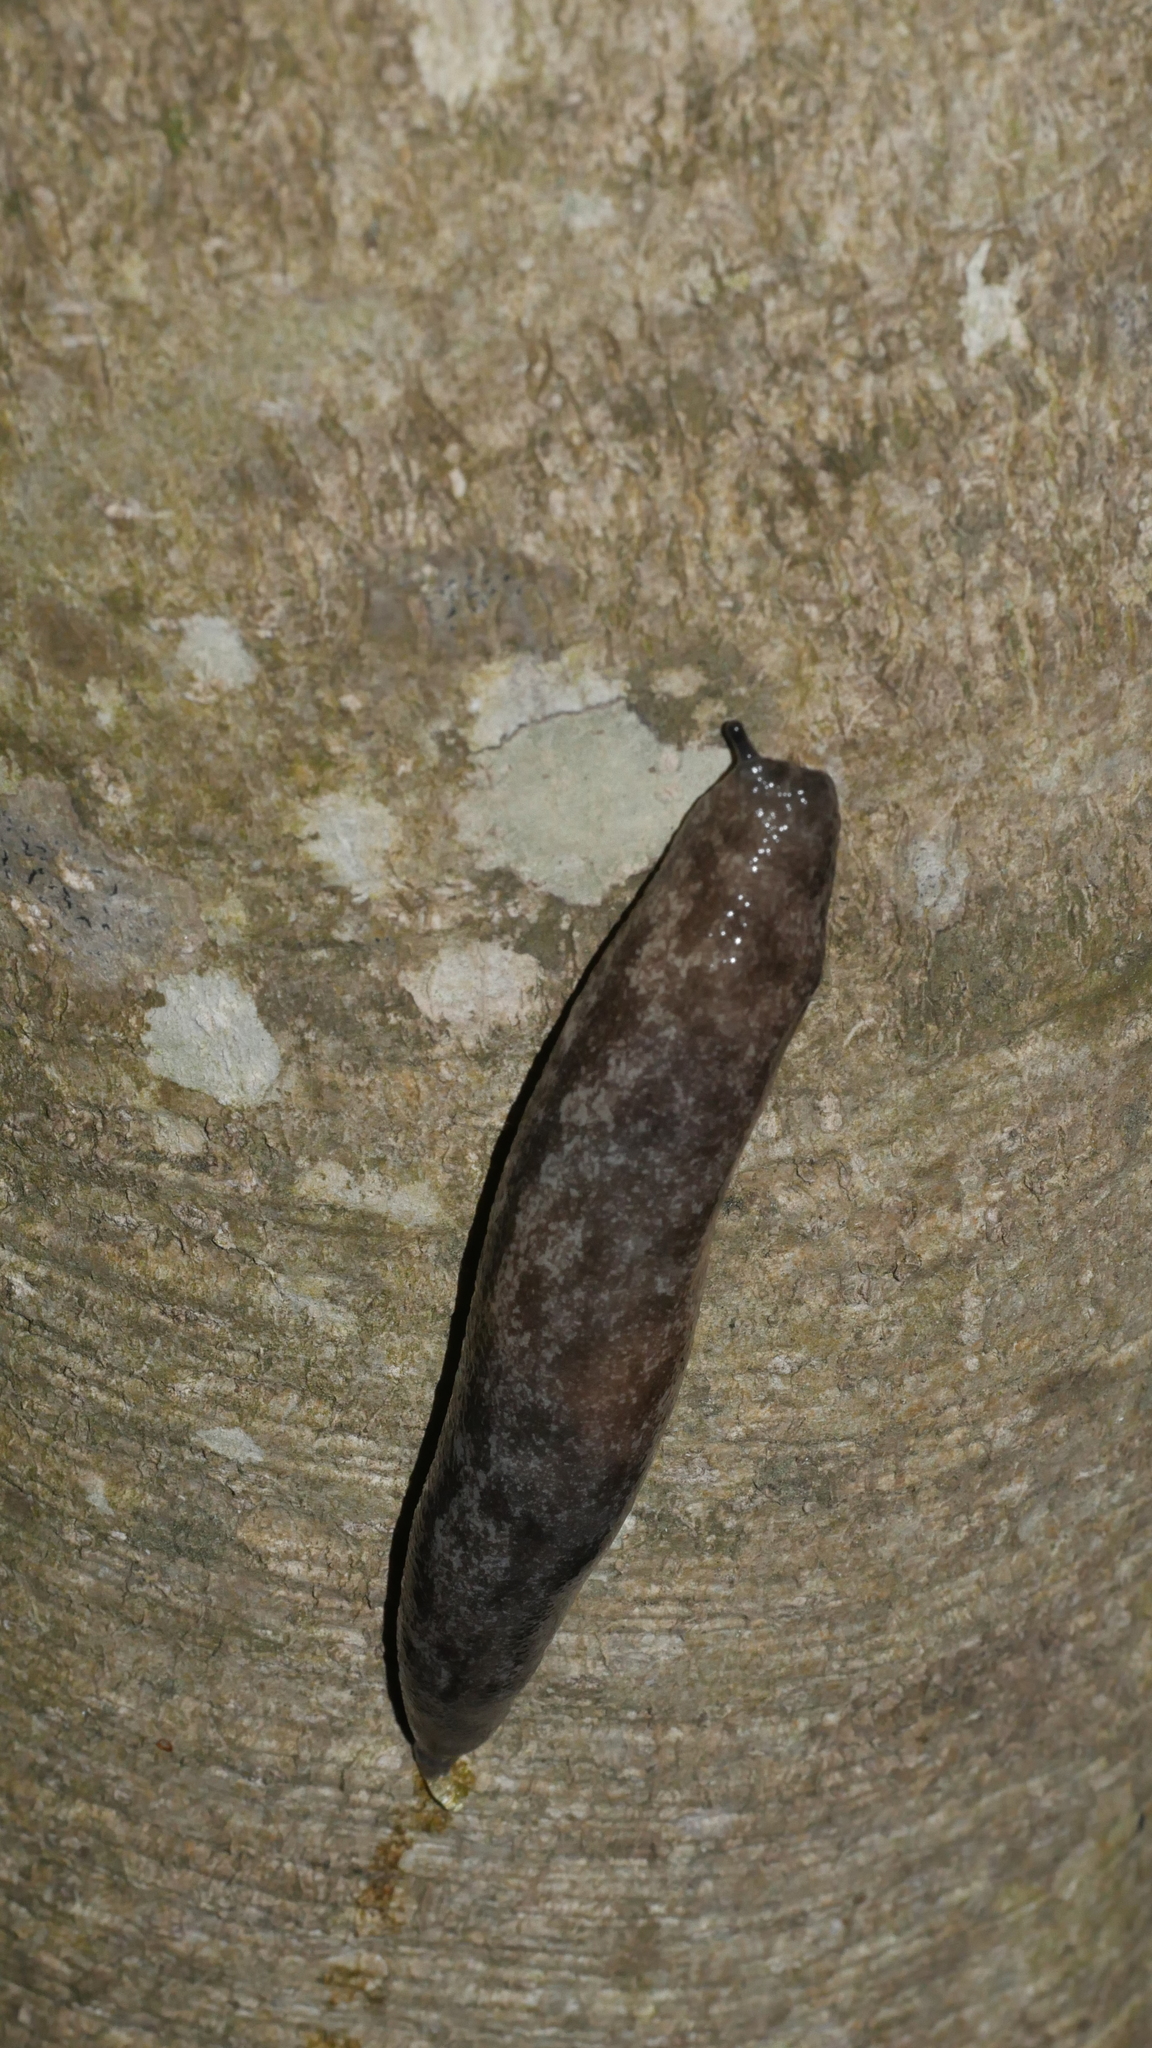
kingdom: Animalia
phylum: Mollusca
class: Gastropoda
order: Stylommatophora
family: Philomycidae
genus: Megapallifera
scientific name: Megapallifera mutabilis
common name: Changeable mantleslug
